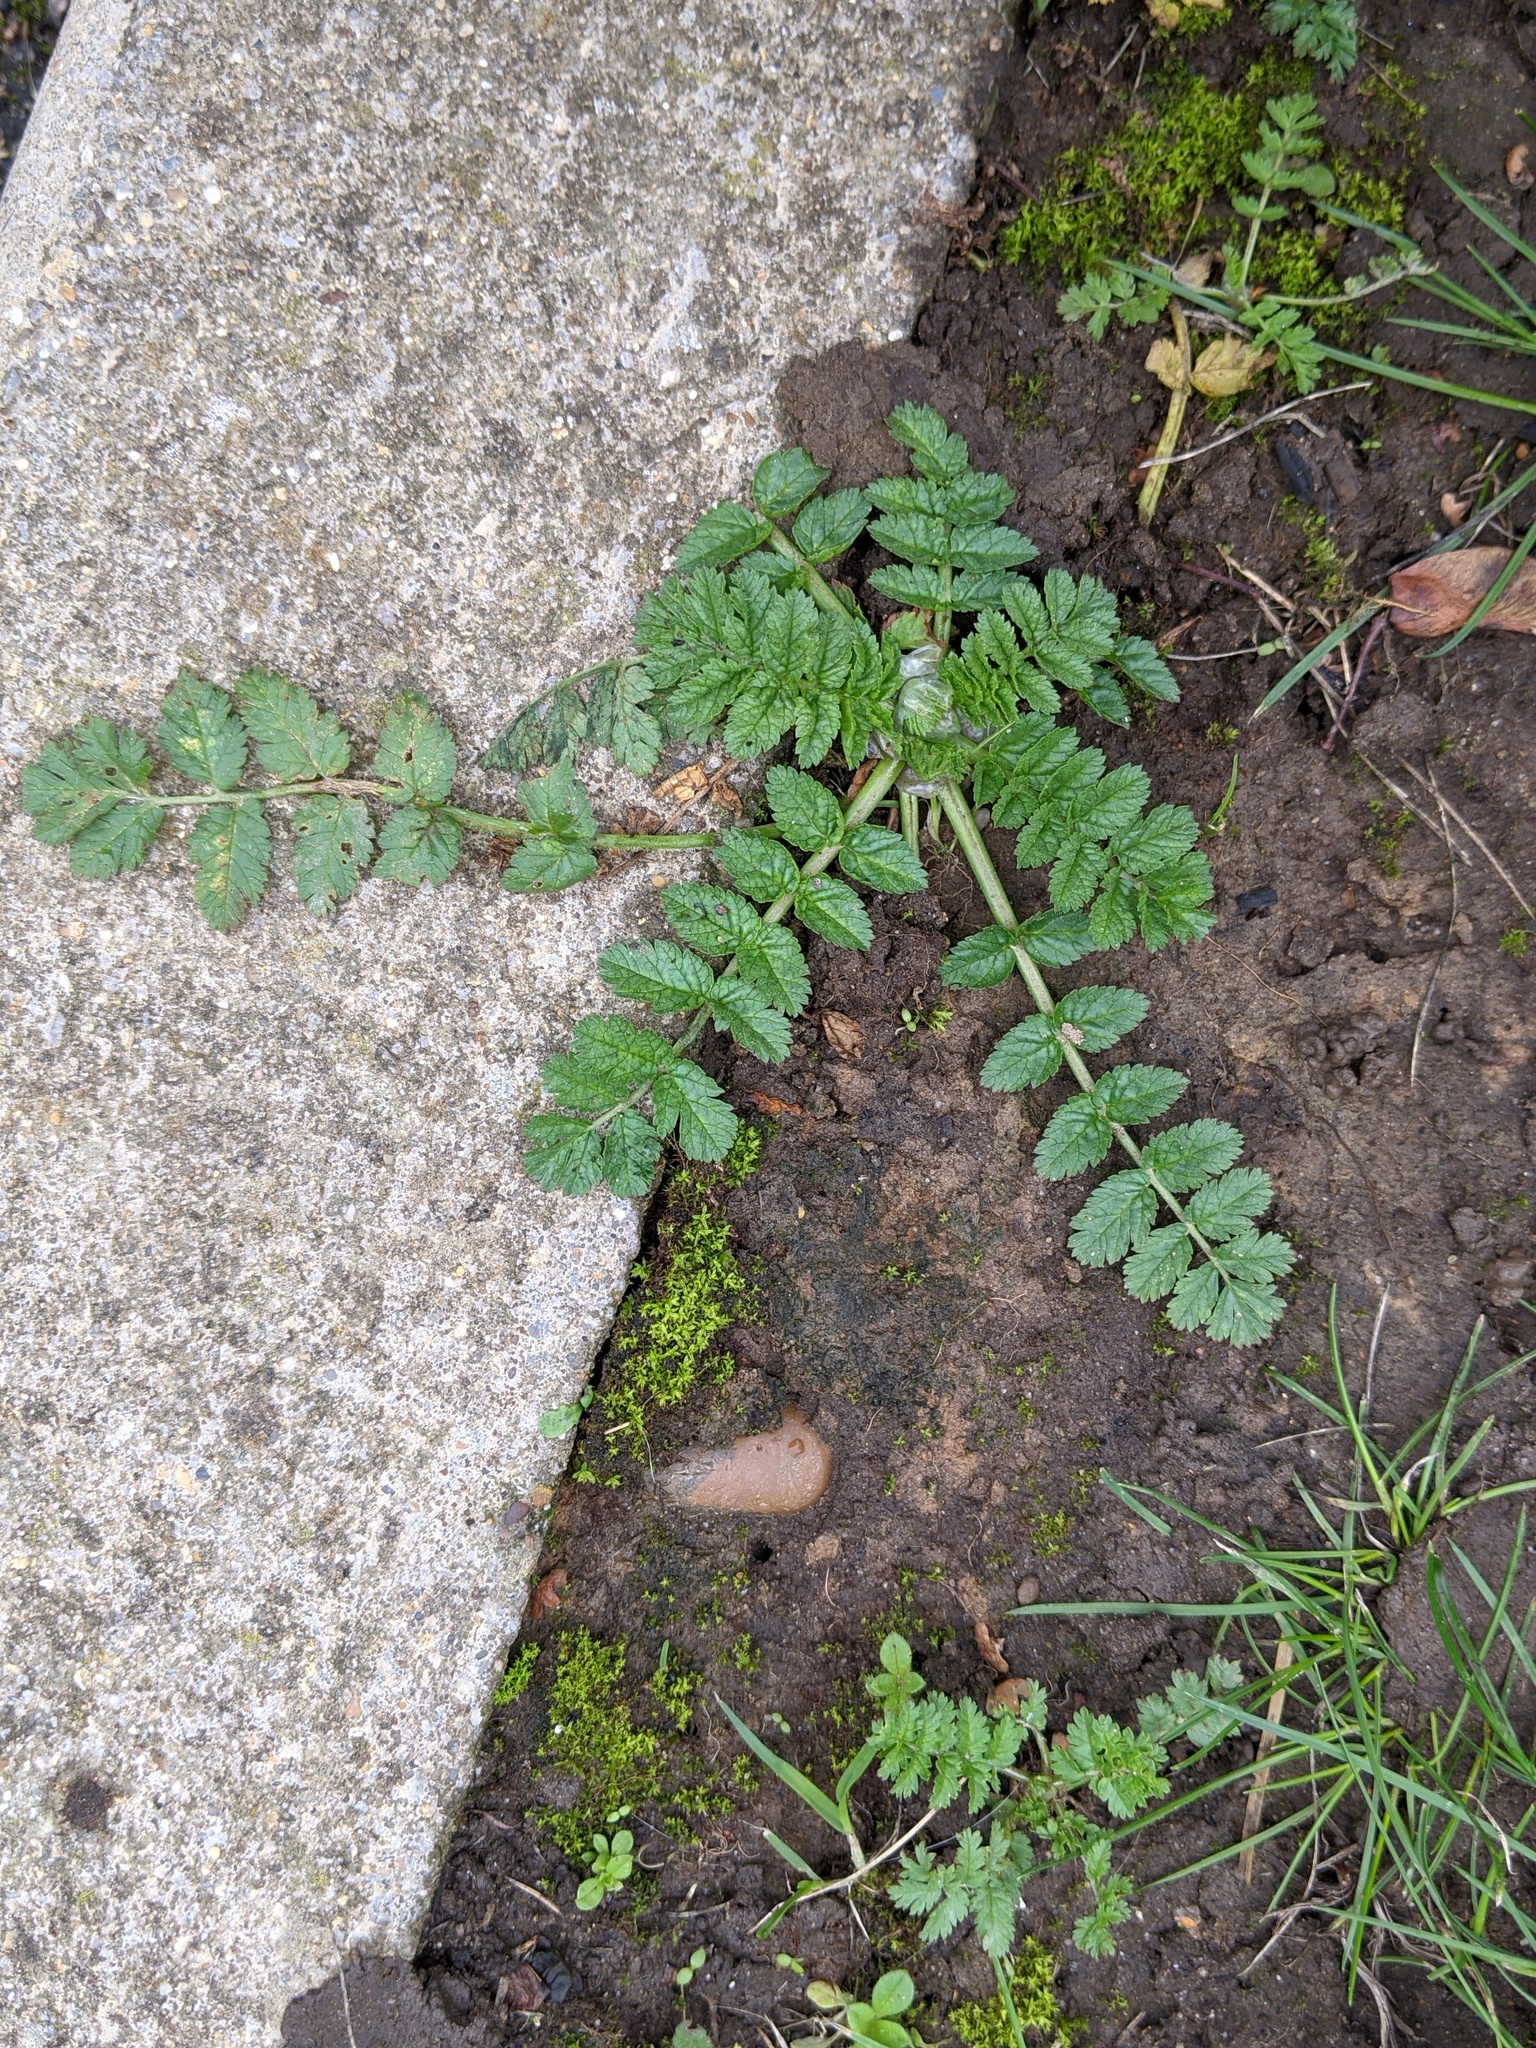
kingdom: Plantae
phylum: Tracheophyta
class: Magnoliopsida
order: Geraniales
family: Geraniaceae
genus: Erodium
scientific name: Erodium moschatum
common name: Musk stork's-bill
